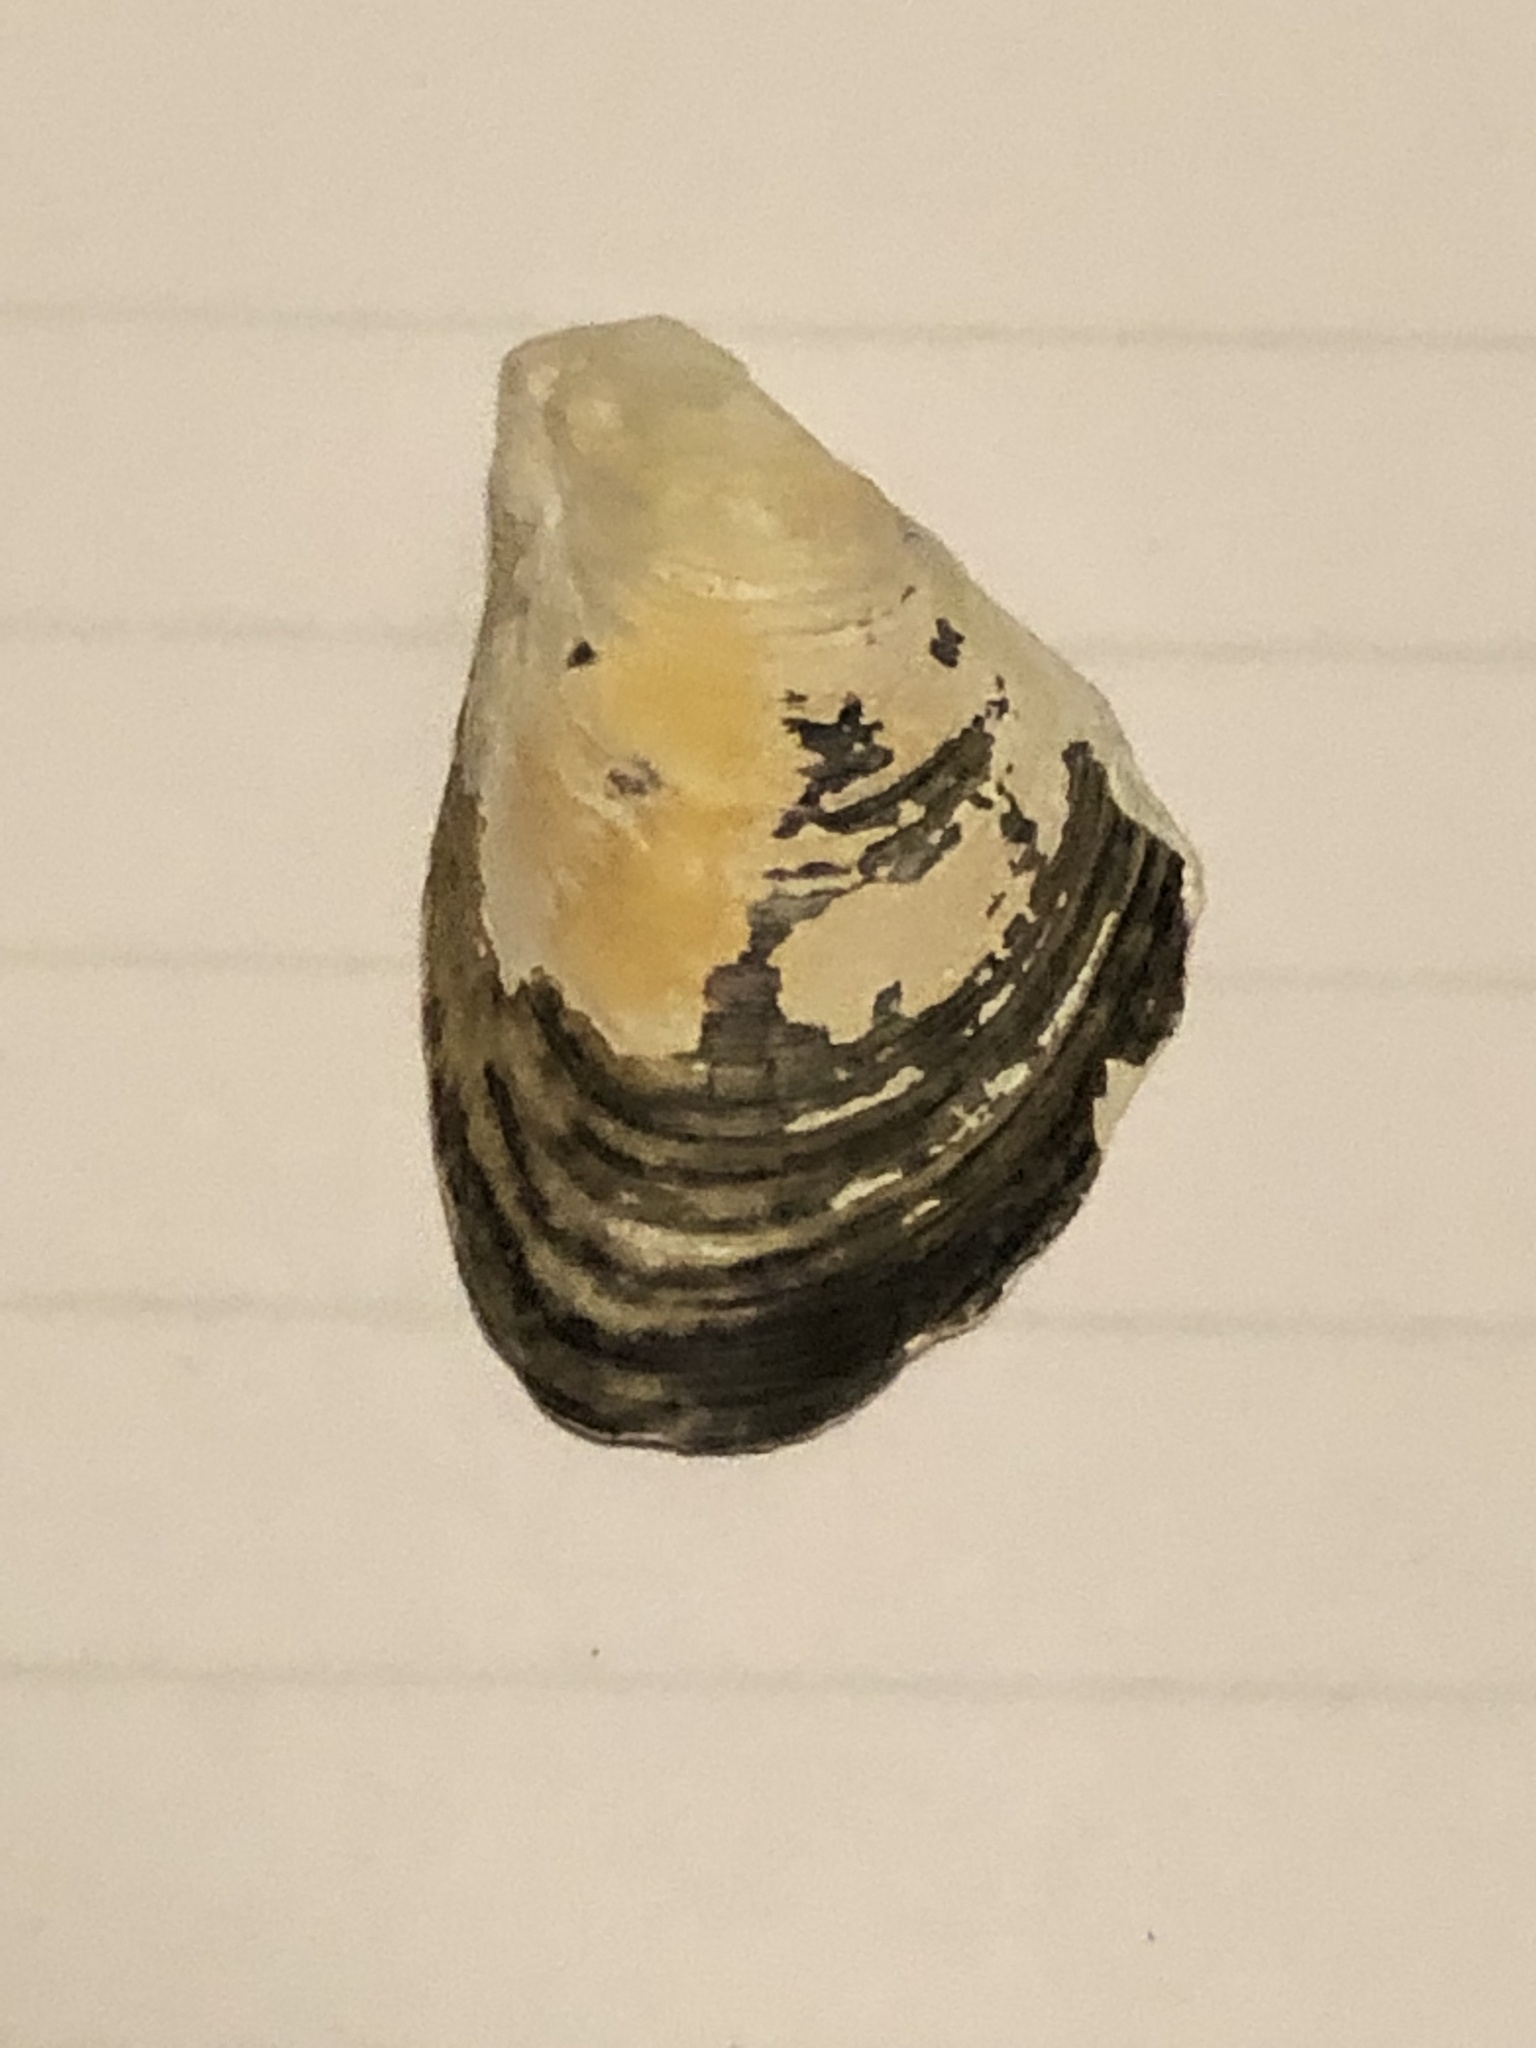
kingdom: Animalia
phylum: Mollusca
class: Bivalvia
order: Myida
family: Dreissenidae
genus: Dreissena
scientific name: Dreissena bugensis
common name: Quagga mussel
